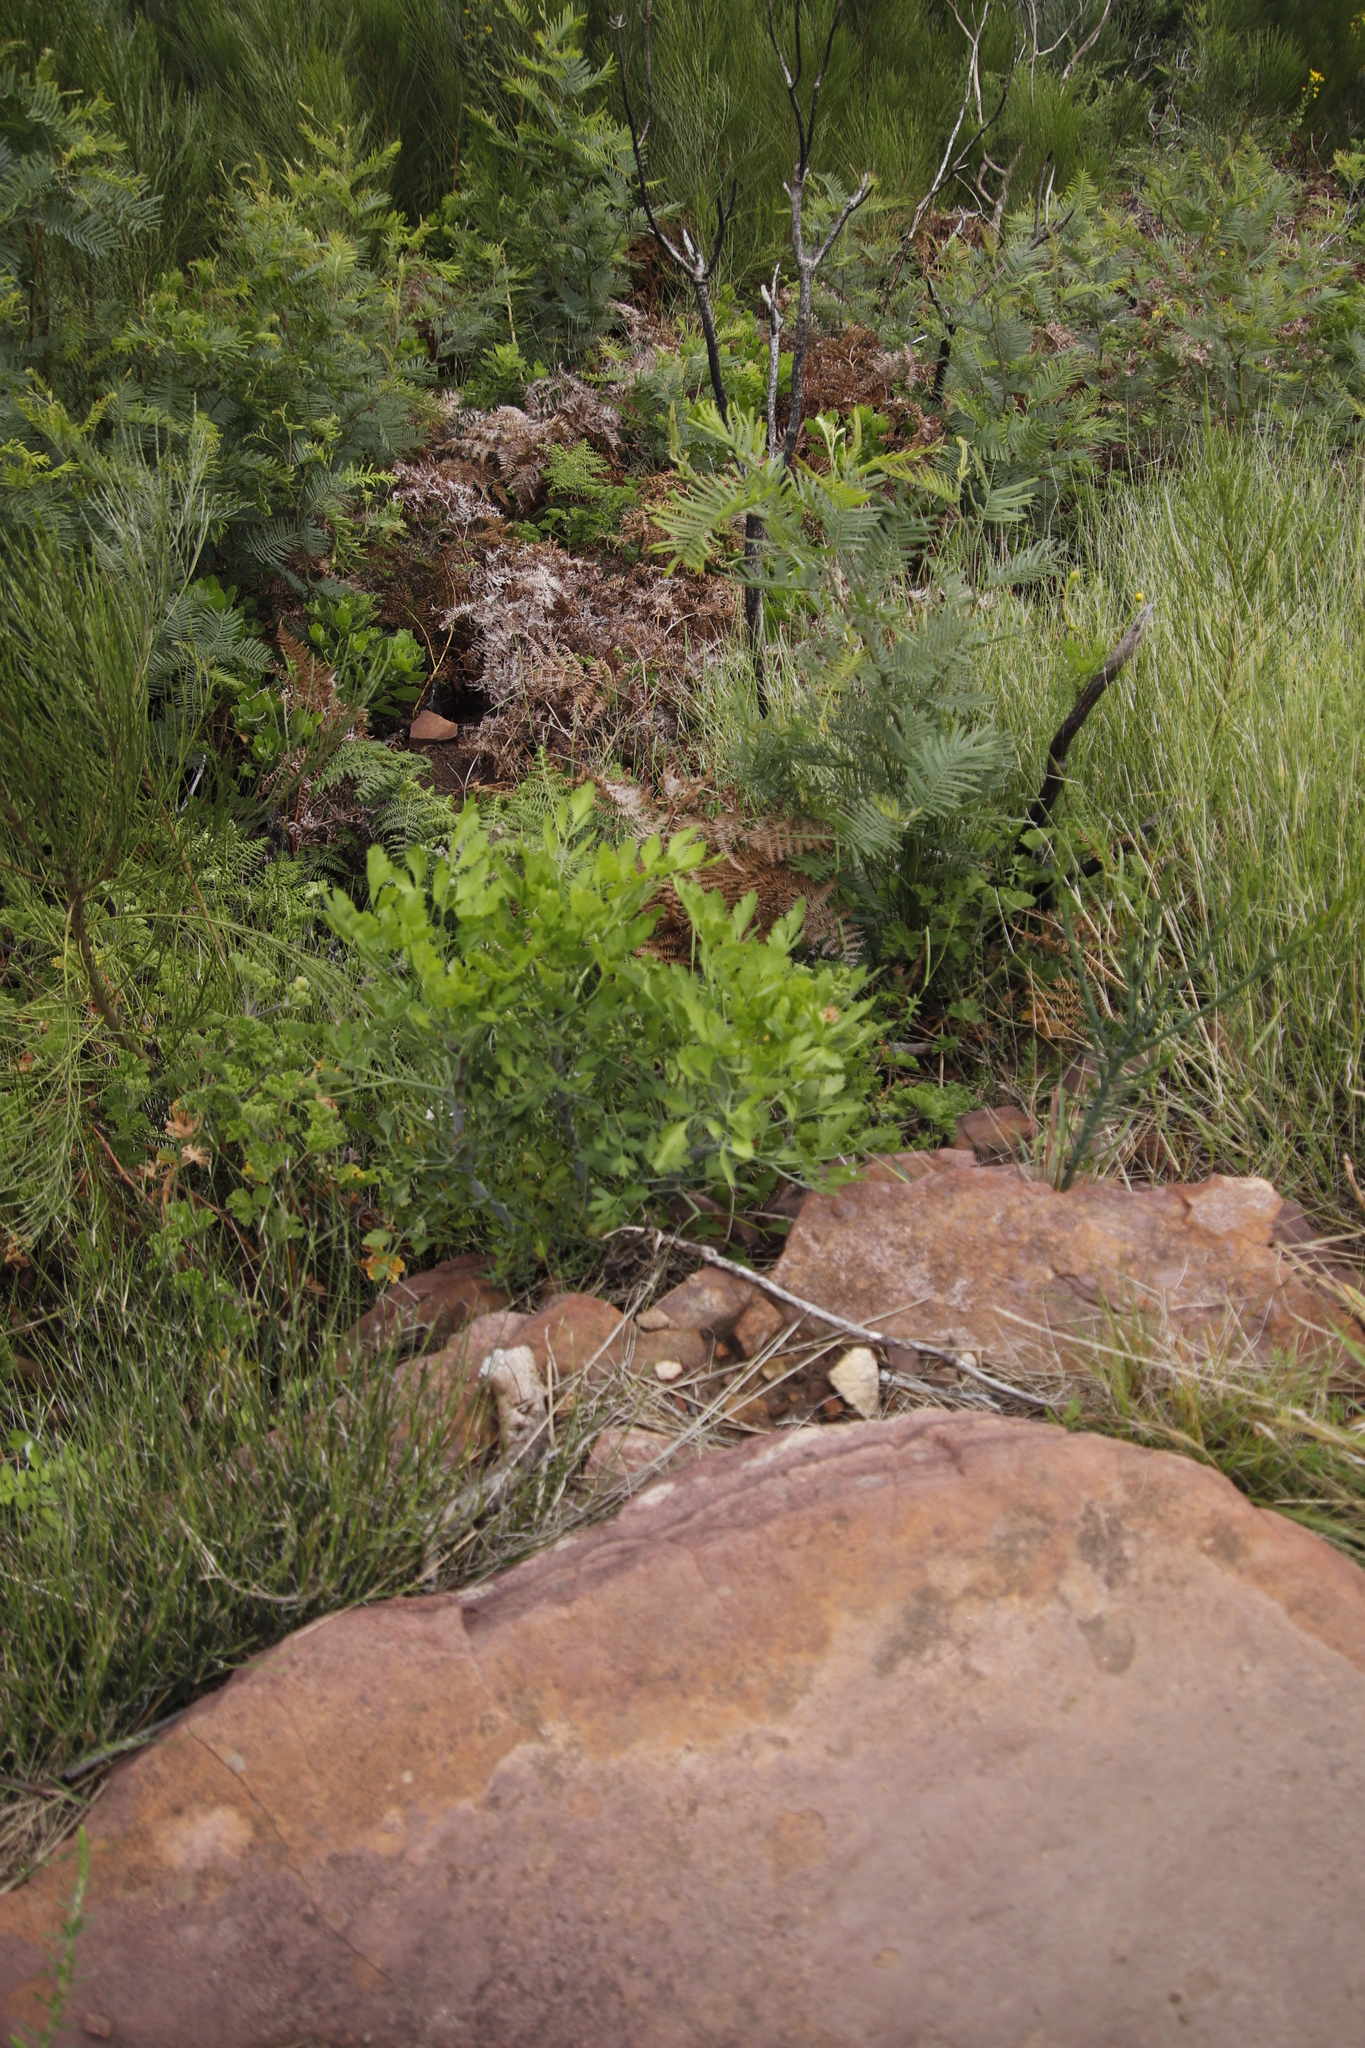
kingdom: Plantae
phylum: Tracheophyta
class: Magnoliopsida
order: Fabales
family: Fabaceae
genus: Acacia
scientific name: Acacia mearnsii
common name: Black wattle
